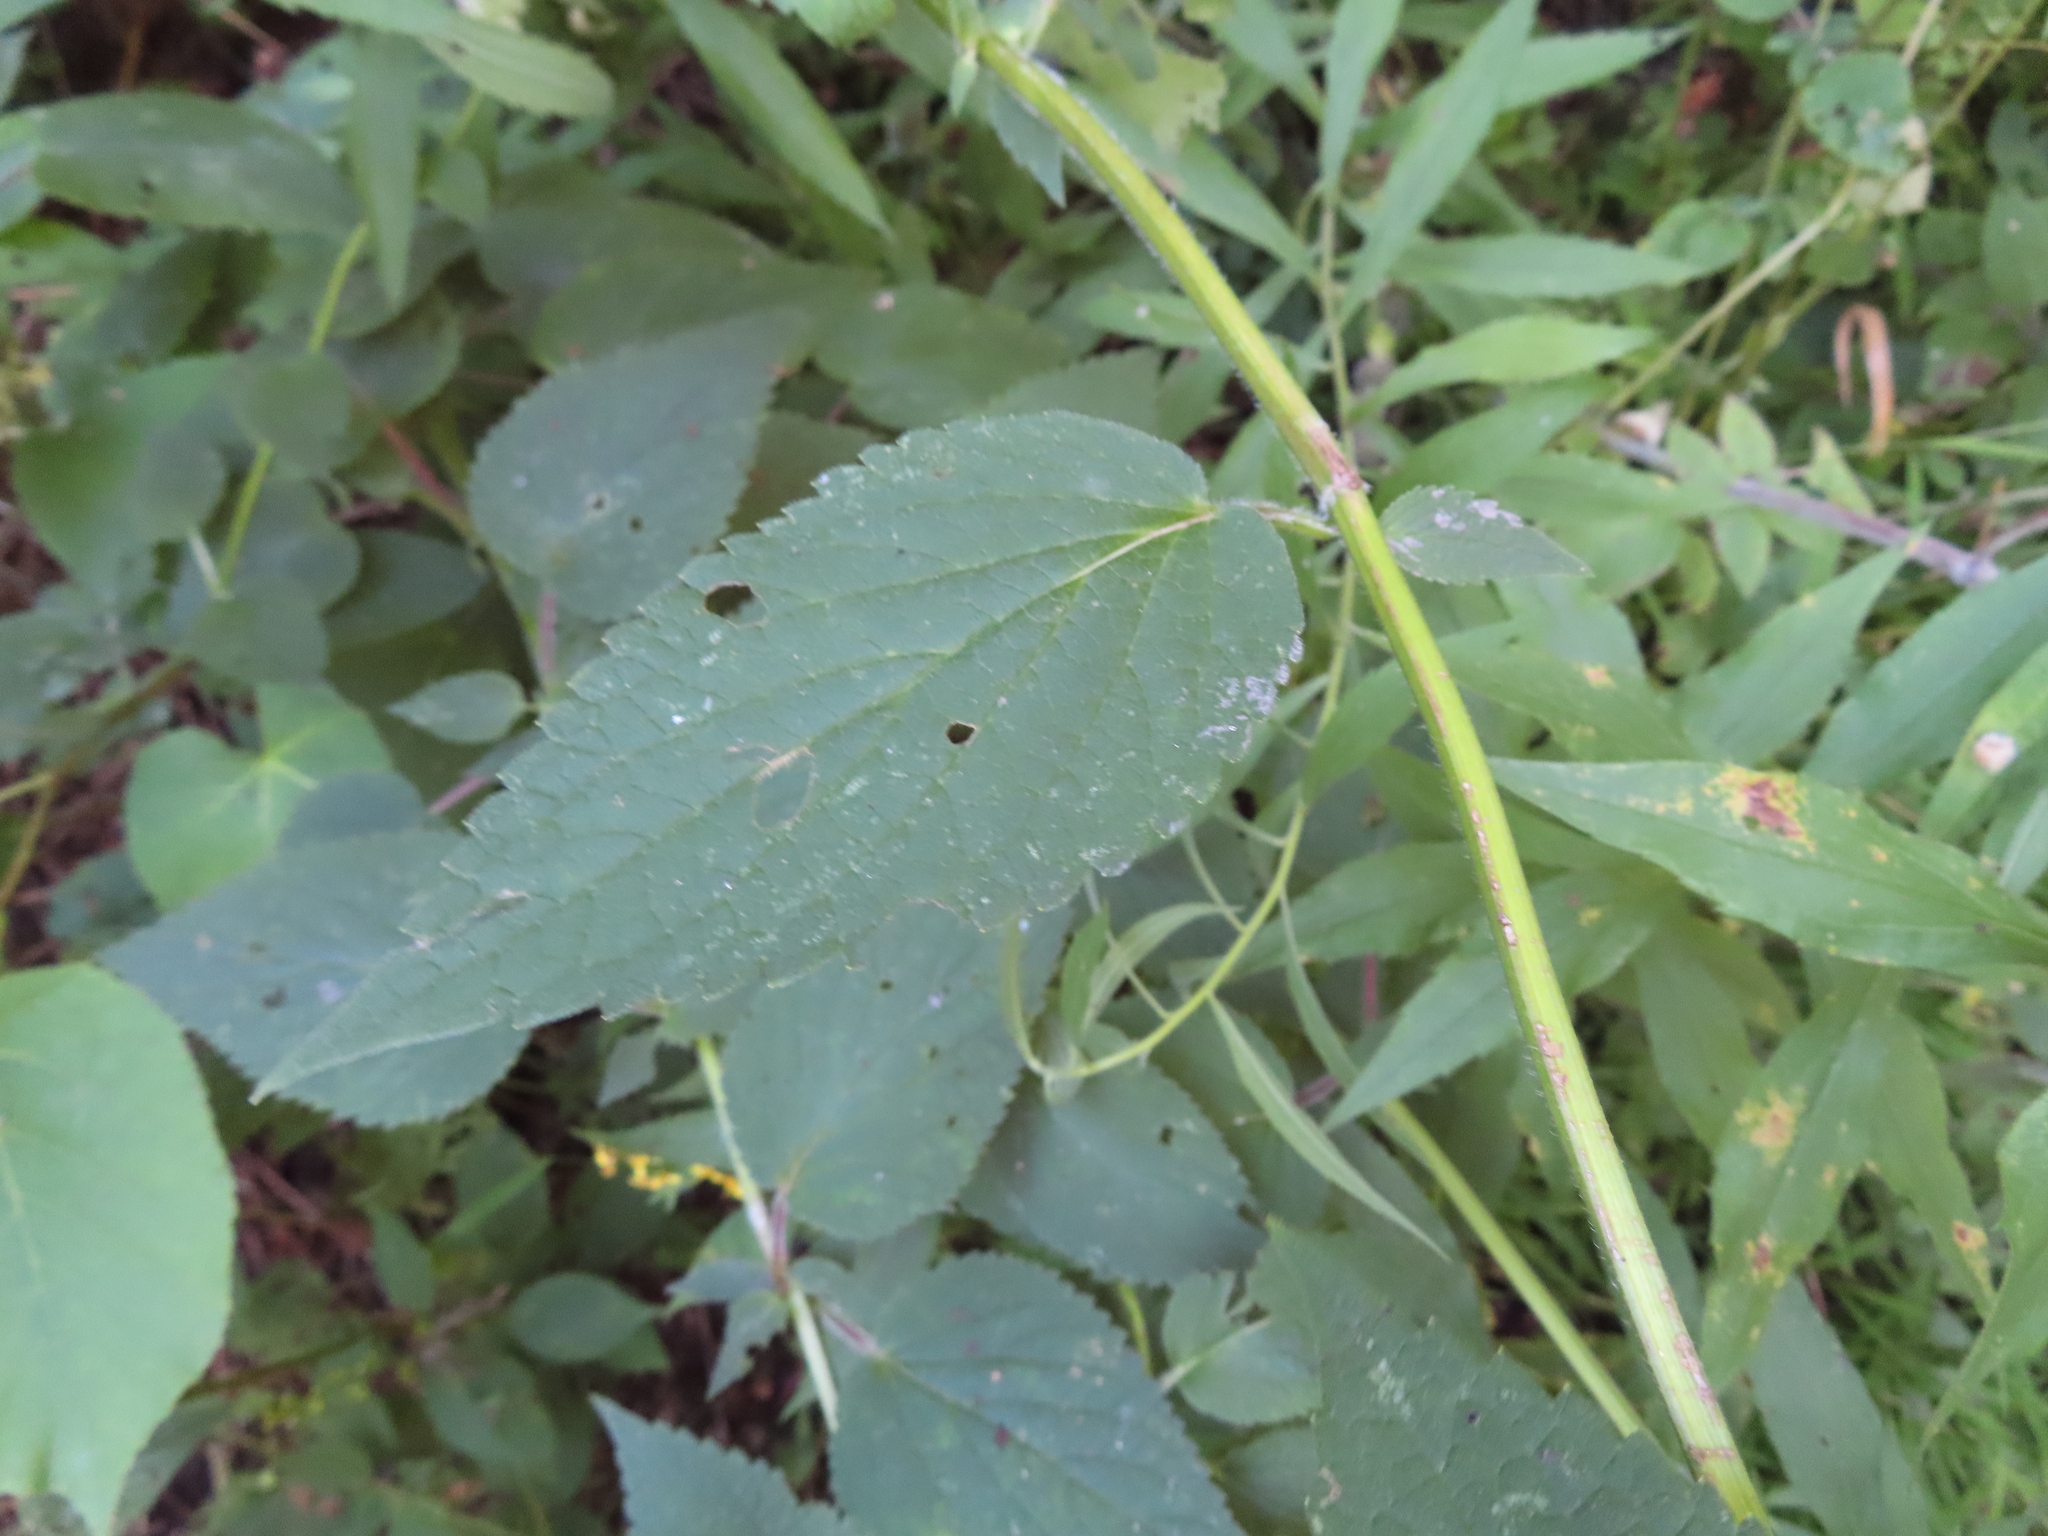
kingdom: Plantae
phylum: Tracheophyta
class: Magnoliopsida
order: Lamiales
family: Lamiaceae
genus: Agastache
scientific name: Agastache scrophulariifolia
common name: Figwort giant hyssop
